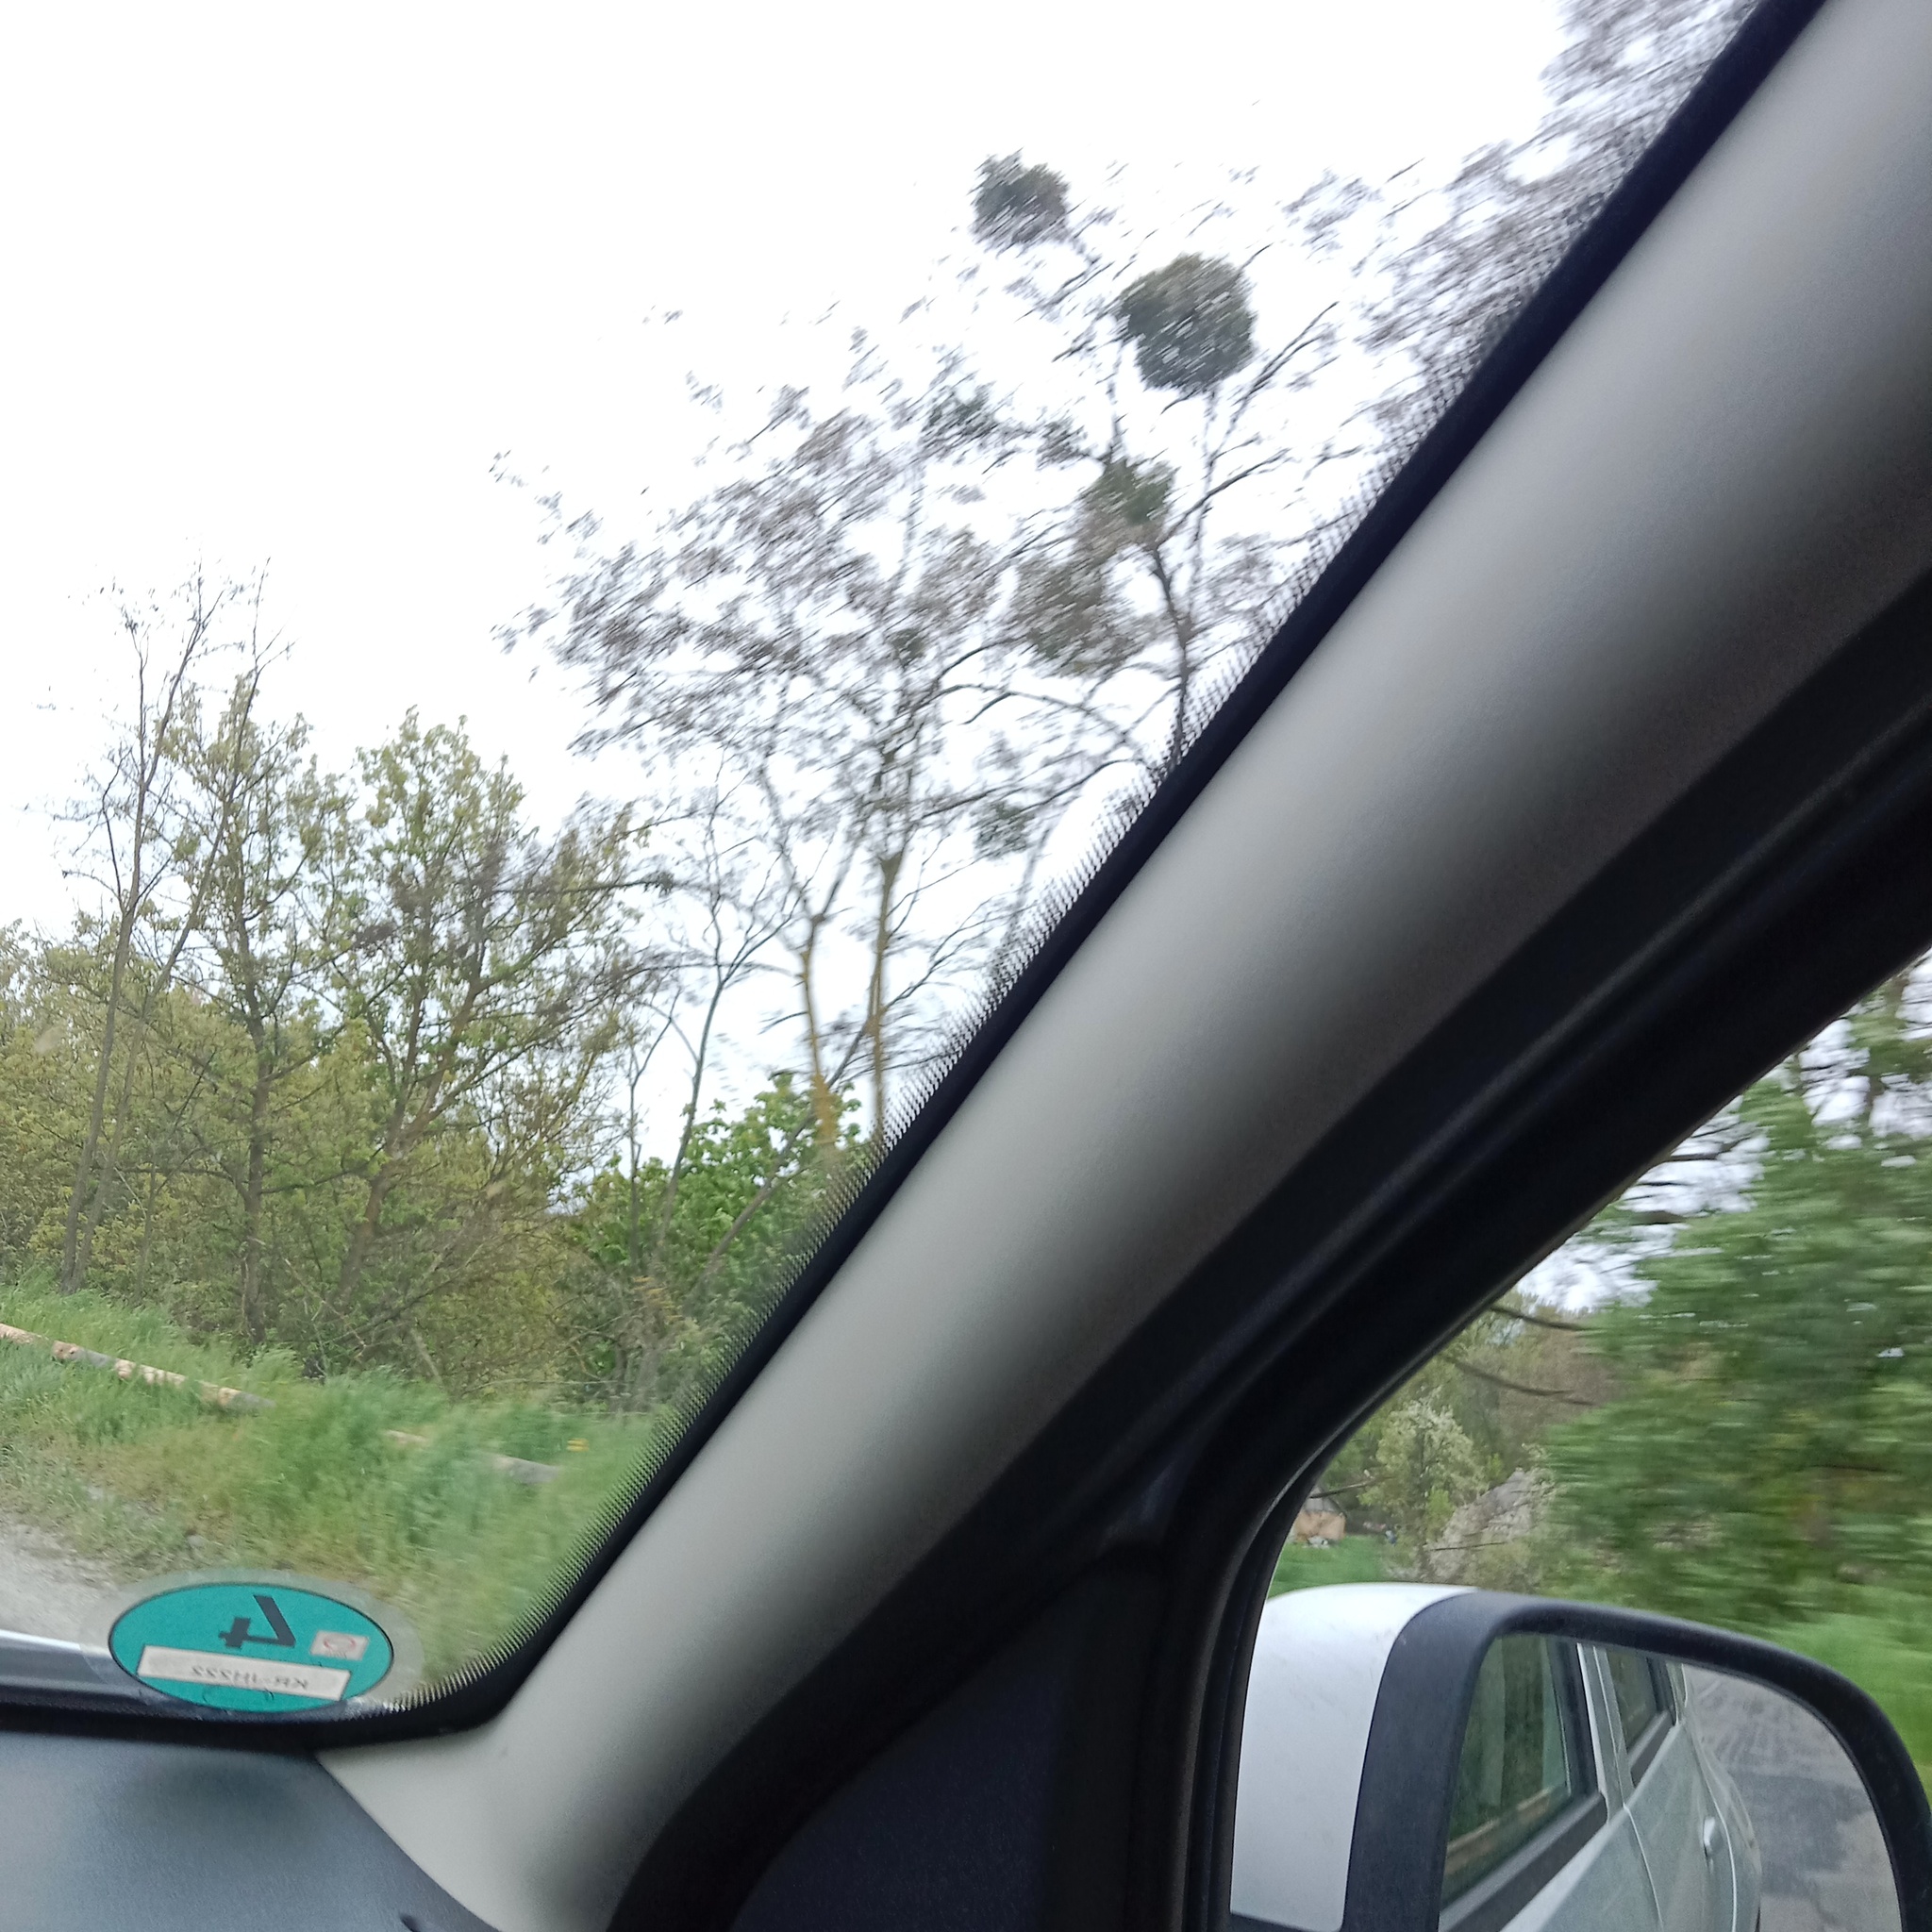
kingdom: Plantae
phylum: Tracheophyta
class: Magnoliopsida
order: Santalales
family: Viscaceae
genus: Viscum
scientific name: Viscum album
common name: Mistletoe
